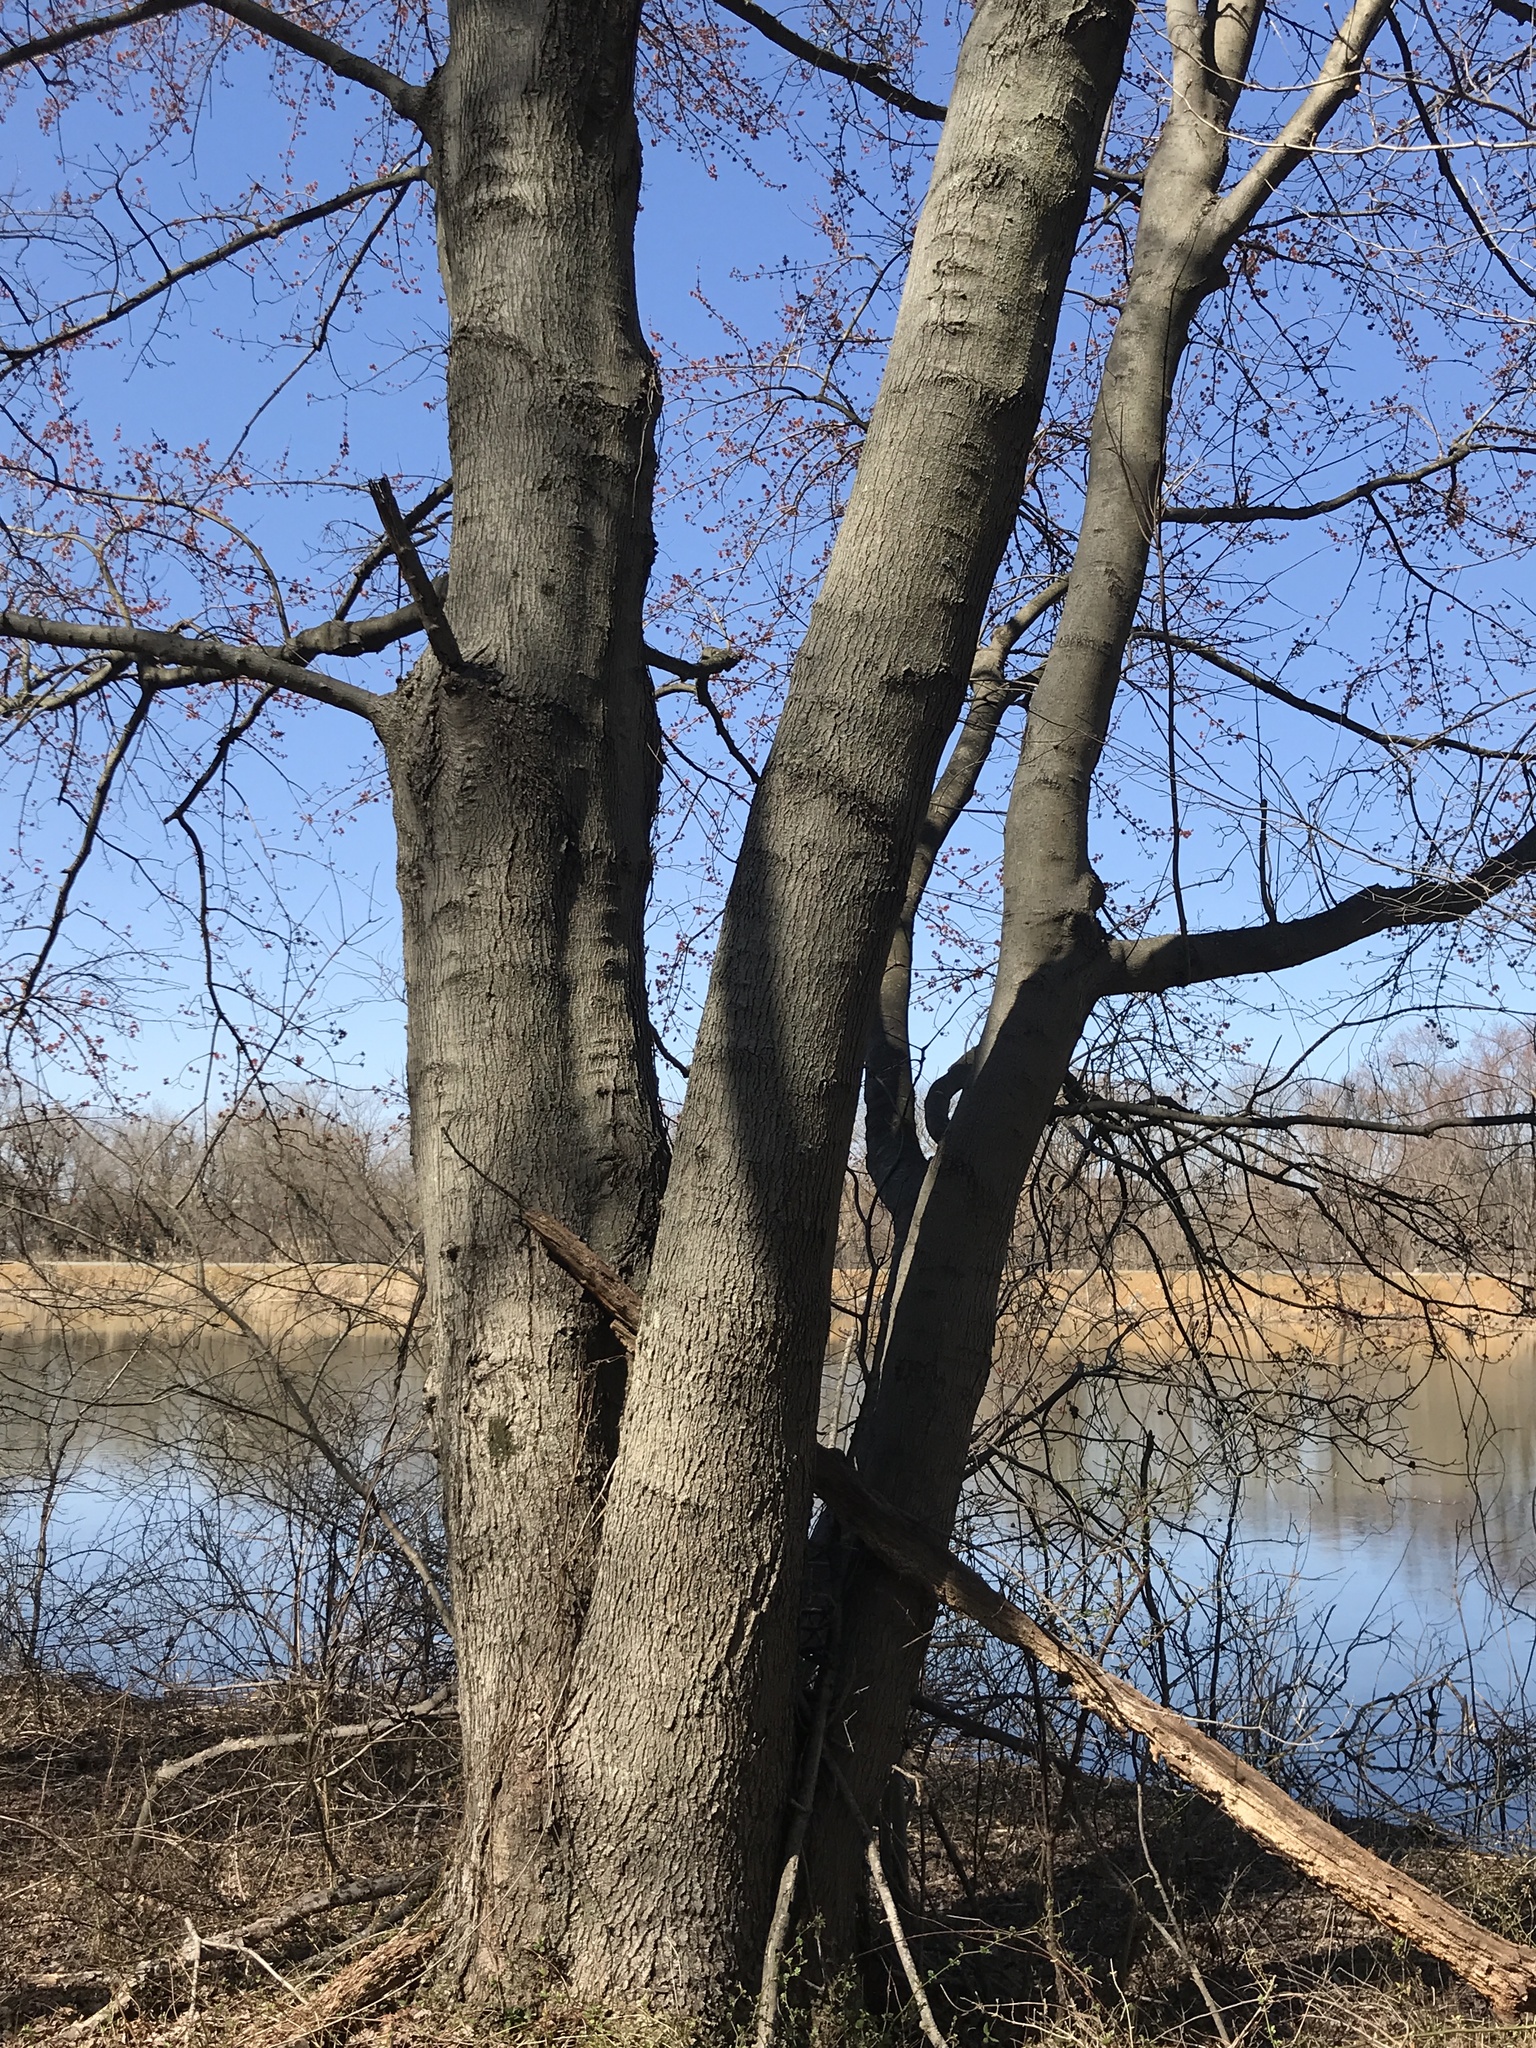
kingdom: Plantae
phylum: Tracheophyta
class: Magnoliopsida
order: Sapindales
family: Sapindaceae
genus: Acer
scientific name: Acer rubrum
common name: Red maple
